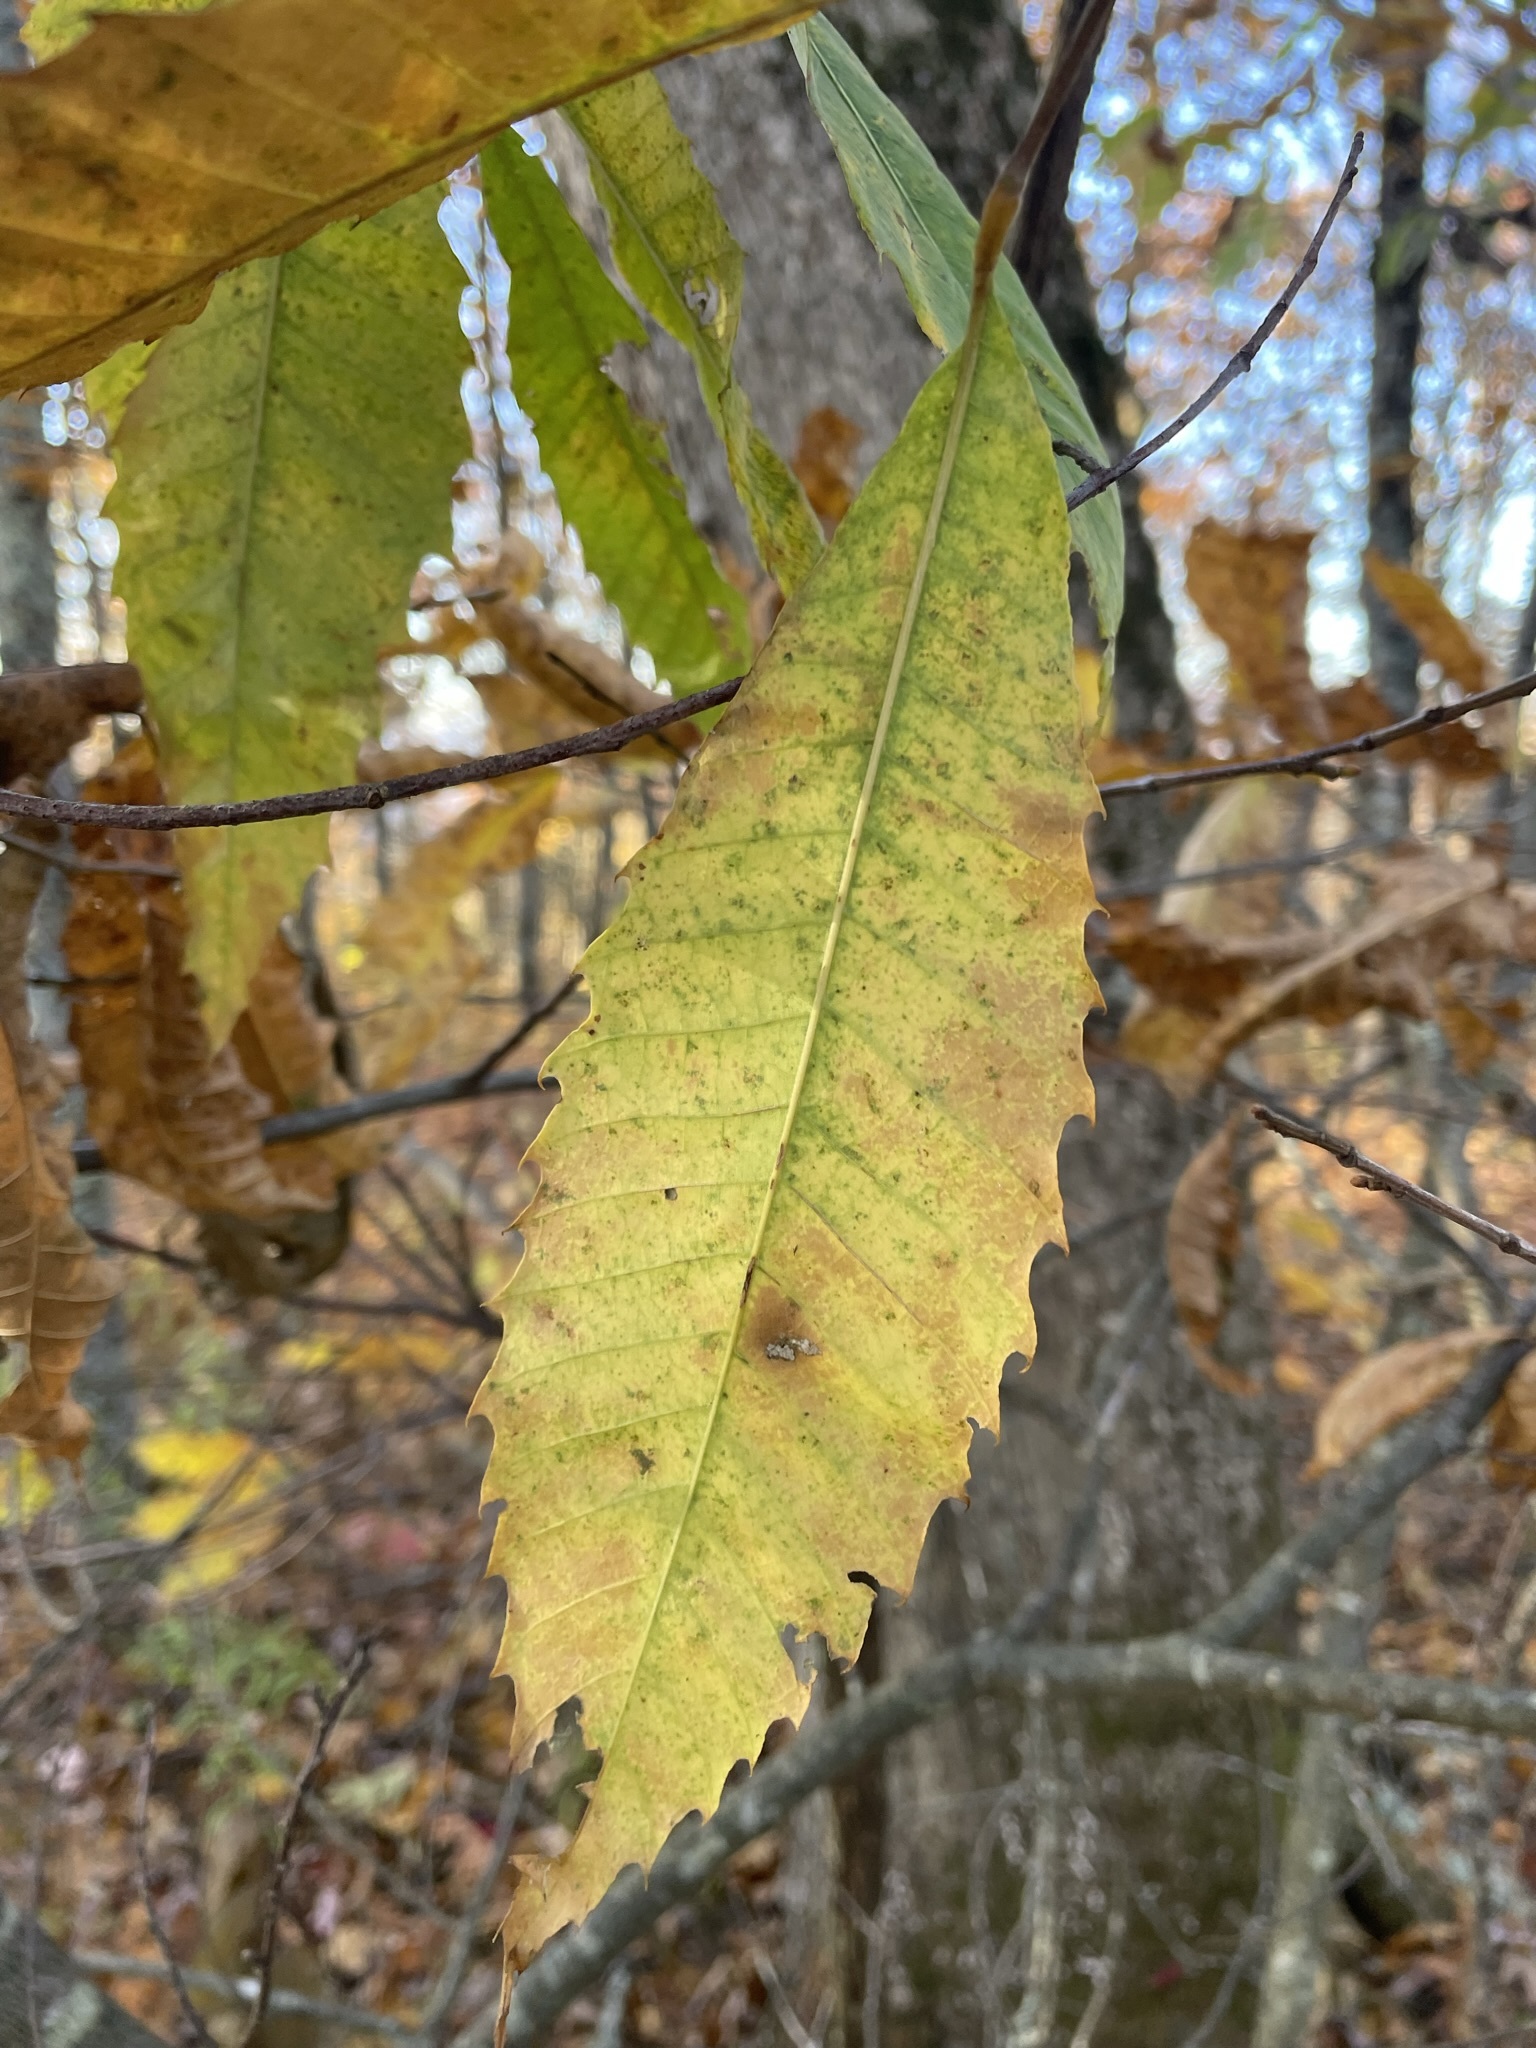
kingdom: Plantae
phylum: Tracheophyta
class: Magnoliopsida
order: Fagales
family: Fagaceae
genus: Castanea
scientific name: Castanea dentata
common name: American chestnut
